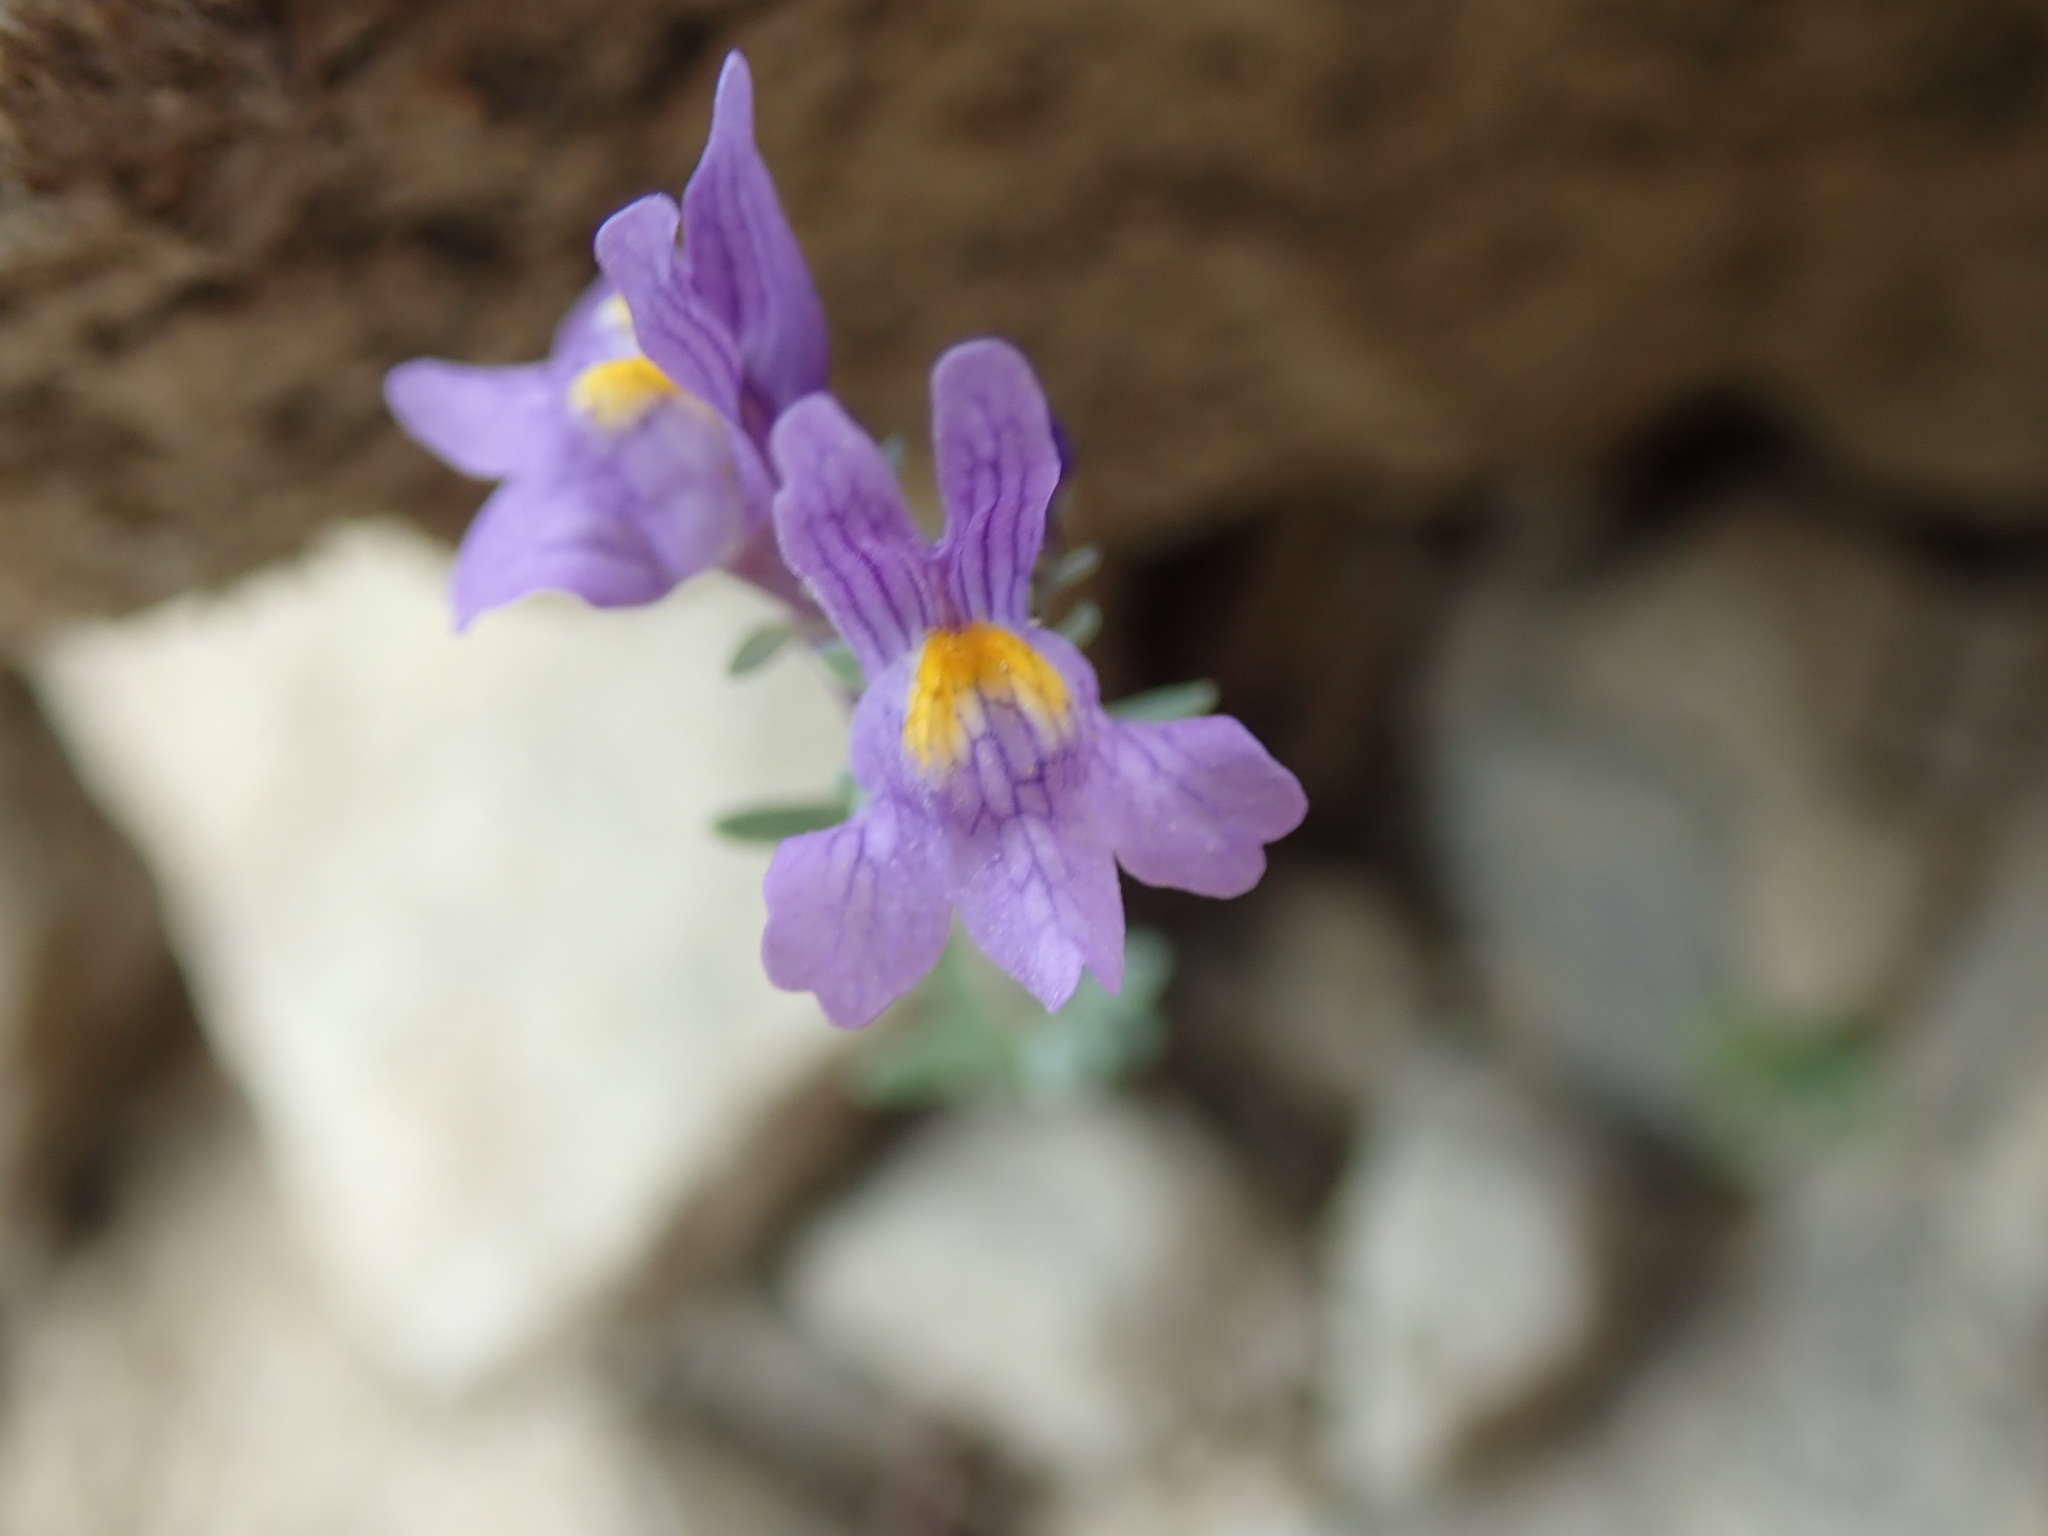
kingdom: Plantae
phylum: Tracheophyta
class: Magnoliopsida
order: Lamiales
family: Plantaginaceae
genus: Linaria
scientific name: Linaria alpina
